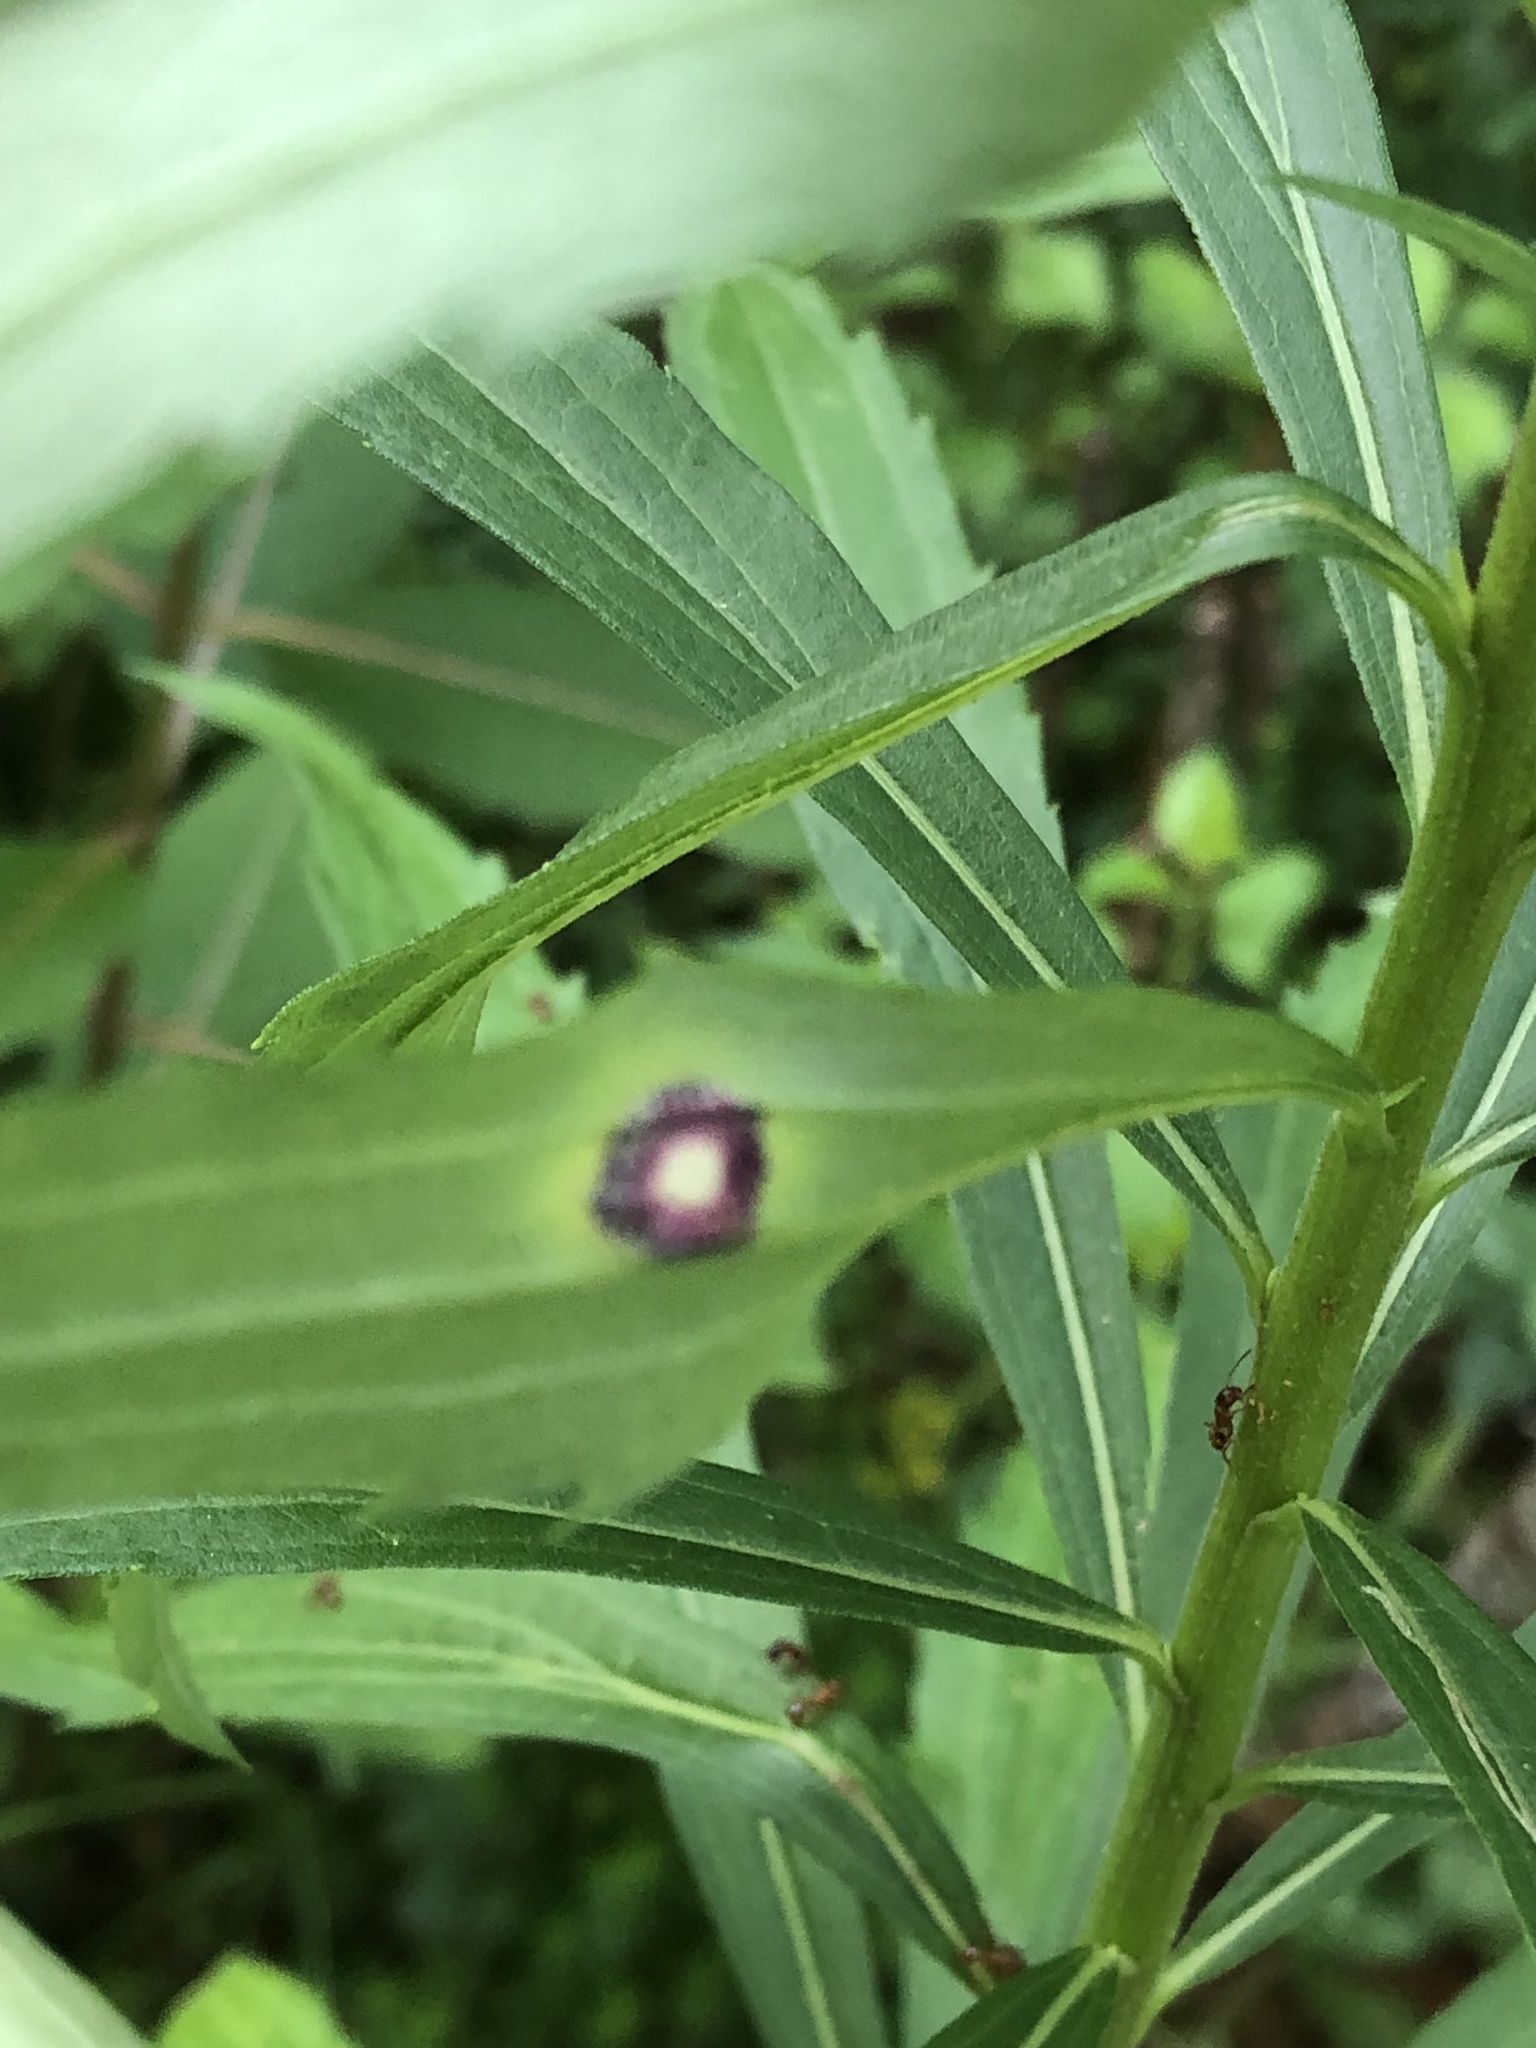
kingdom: Animalia
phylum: Arthropoda
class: Insecta
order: Diptera
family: Cecidomyiidae
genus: Asteromyia
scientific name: Asteromyia carbonifera
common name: Carbonifera goldenrod gall midge
